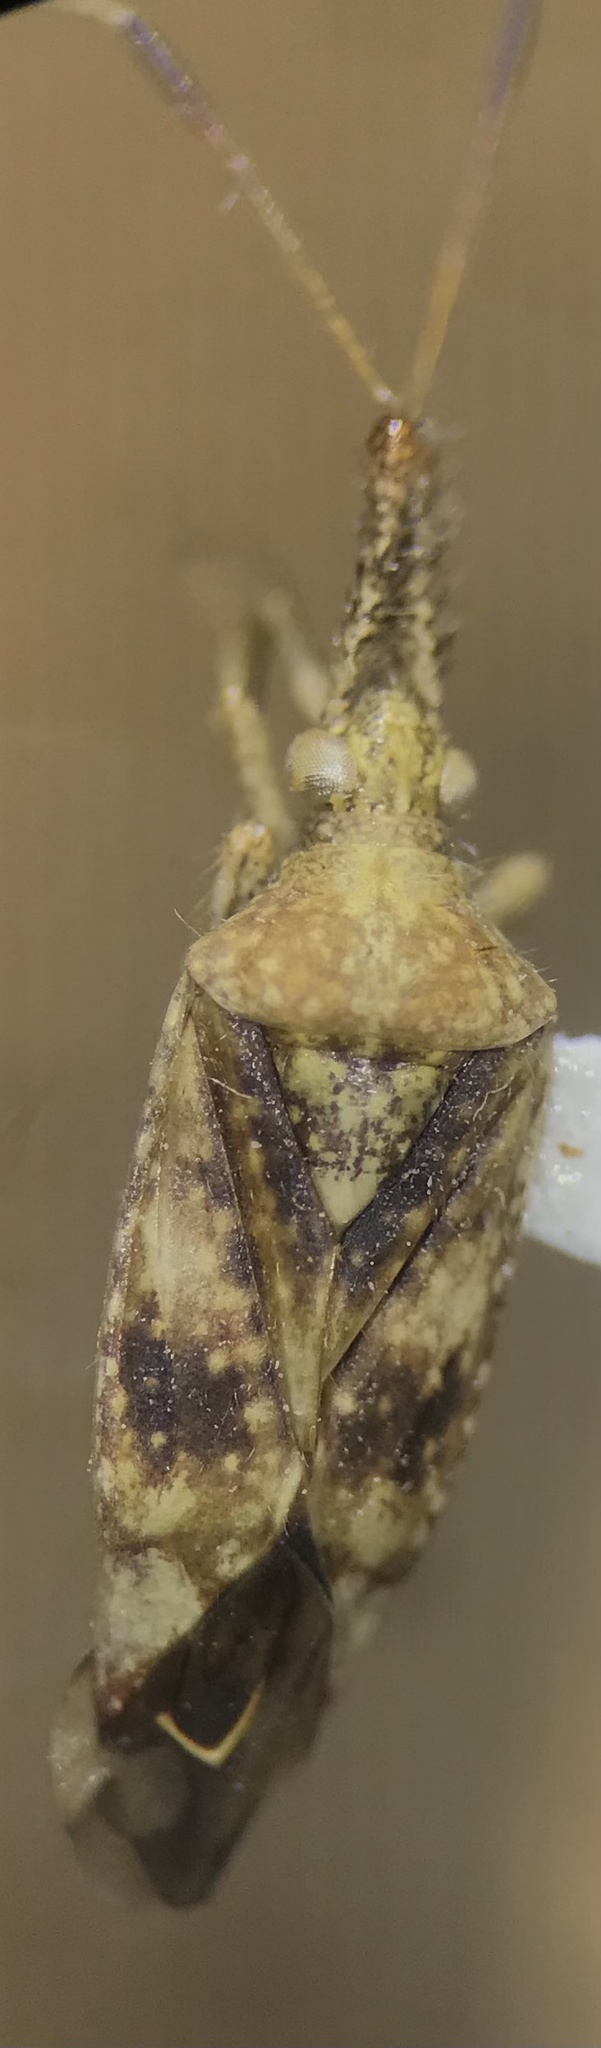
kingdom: Animalia
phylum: Arthropoda
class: Insecta
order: Hemiptera
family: Miridae
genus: Neurocolpus
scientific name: Neurocolpus nubilus
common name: Clouded plant bug
